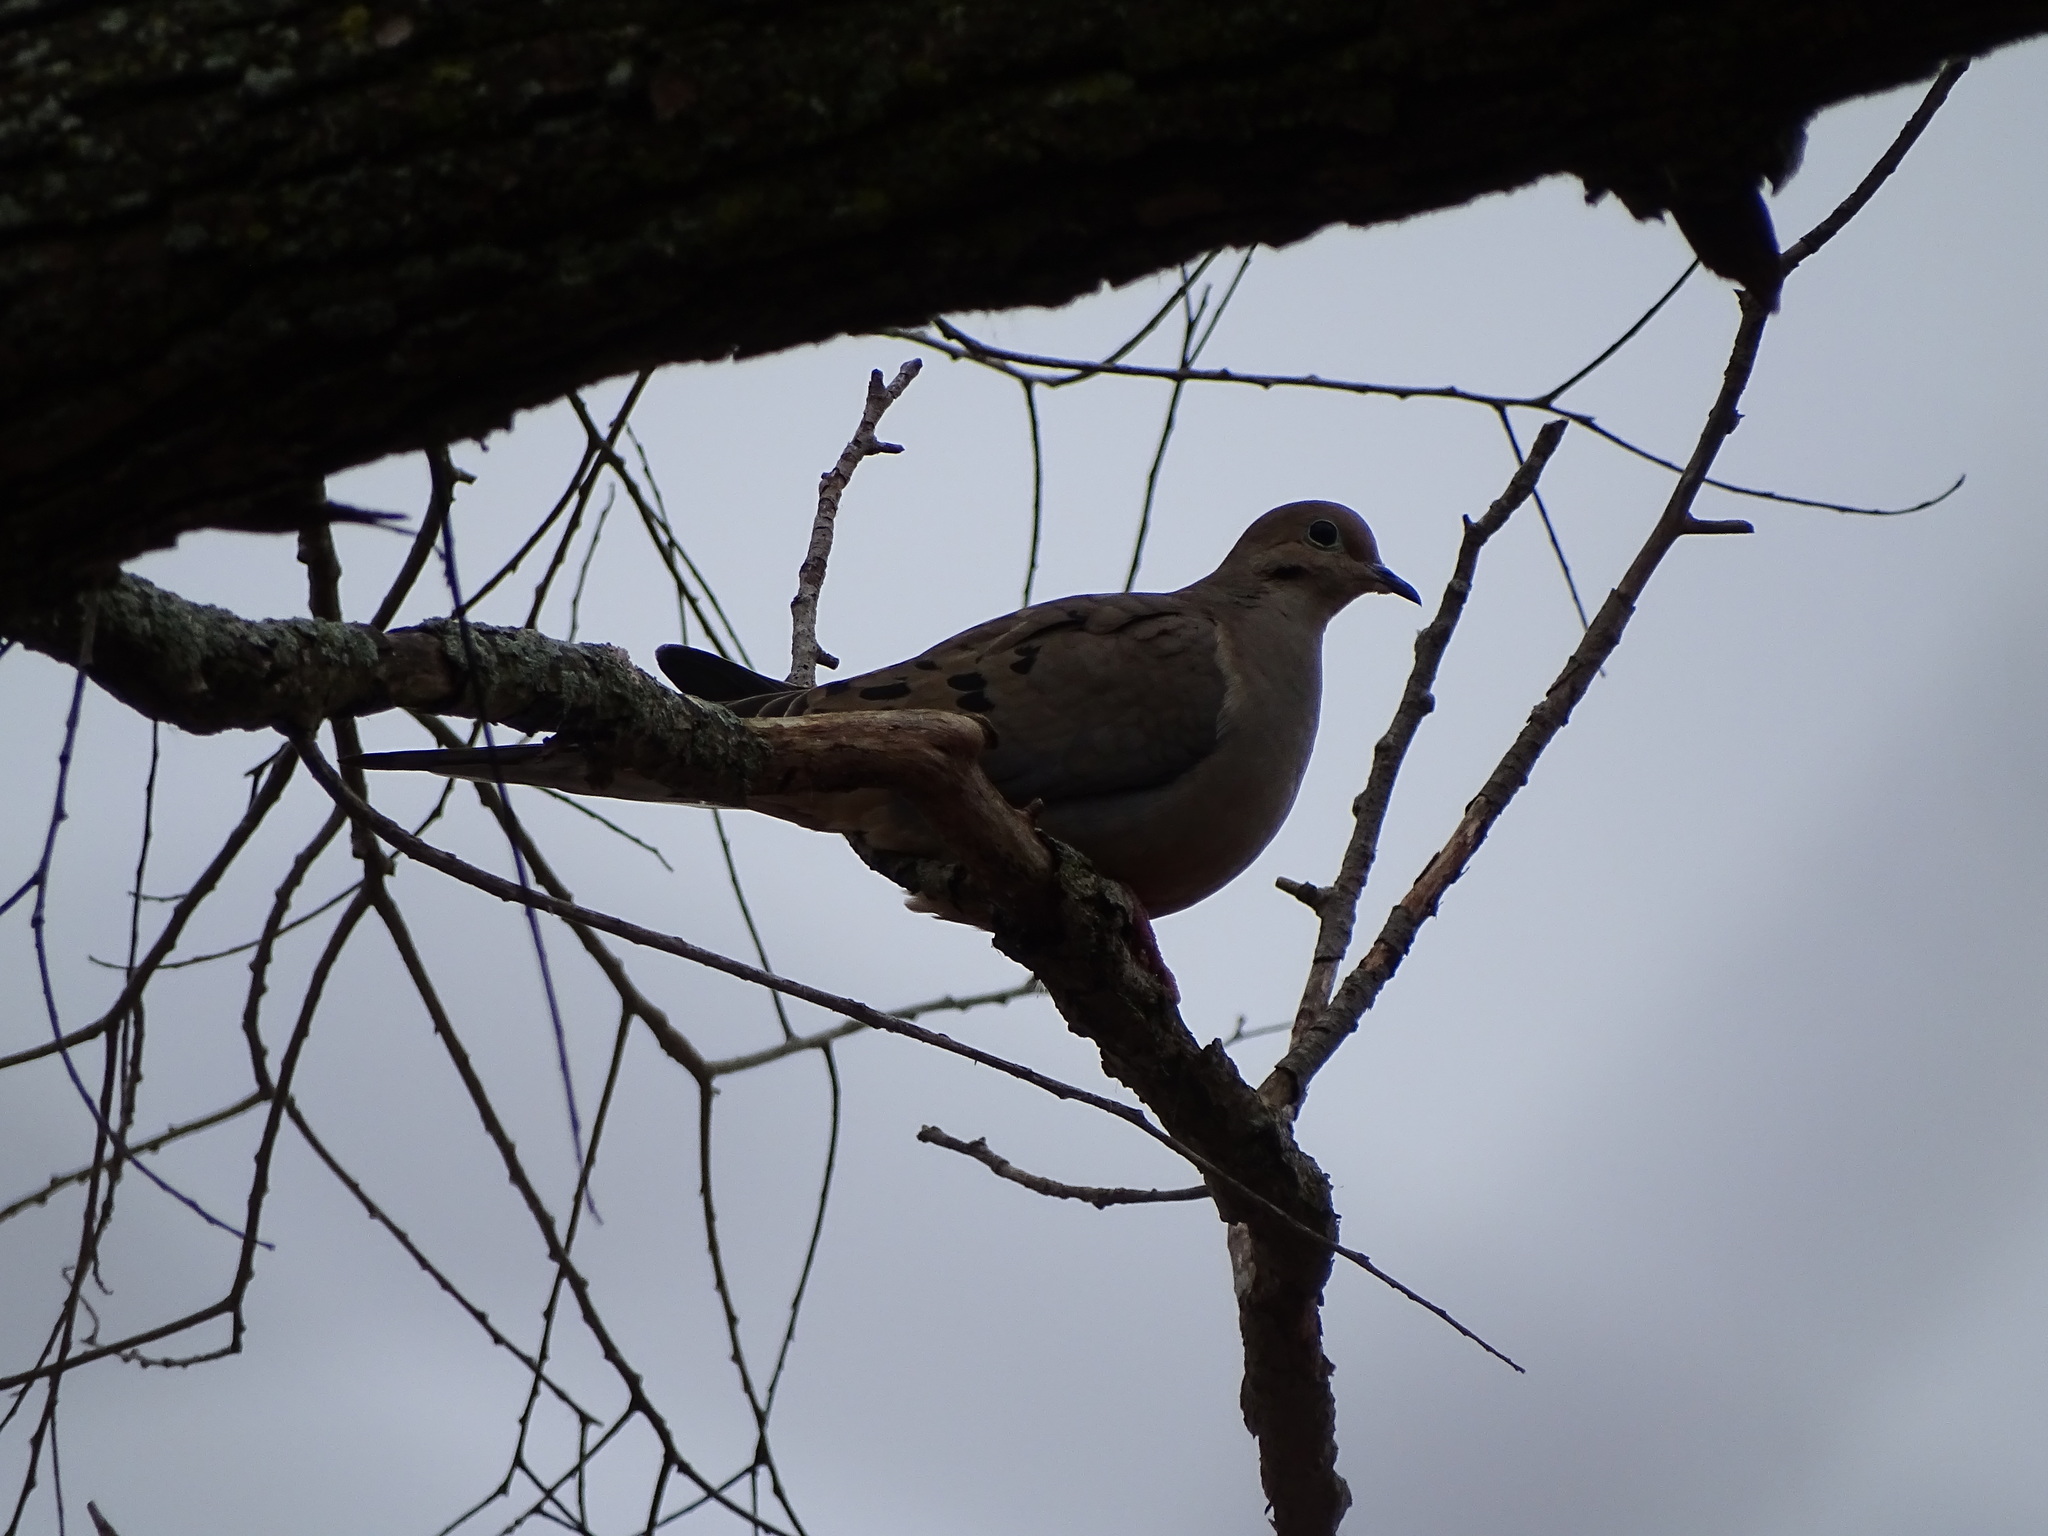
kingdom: Animalia
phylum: Chordata
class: Aves
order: Columbiformes
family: Columbidae
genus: Zenaida
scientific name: Zenaida macroura
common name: Mourning dove
